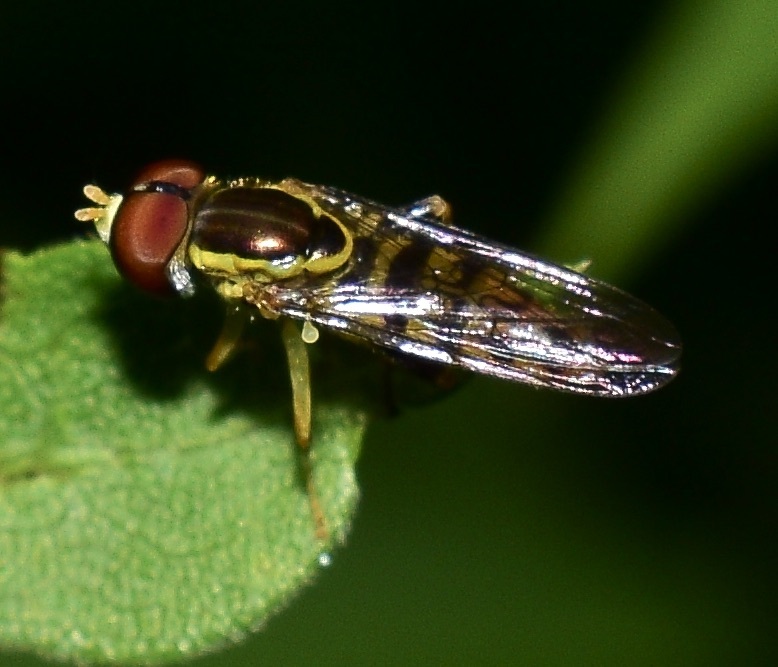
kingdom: Animalia
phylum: Arthropoda
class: Insecta
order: Diptera
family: Syrphidae
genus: Toxomerus
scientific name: Toxomerus geminatus
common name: Eastern calligrapher
